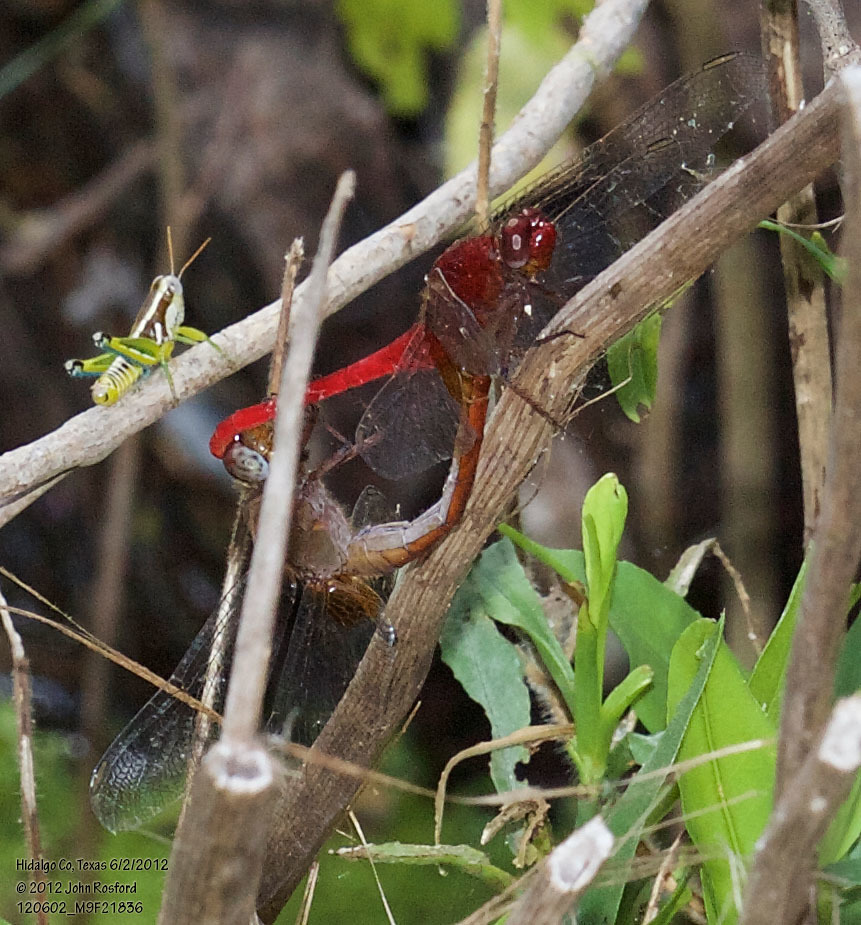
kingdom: Animalia
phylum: Arthropoda
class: Insecta
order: Odonata
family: Libellulidae
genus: Erythemis
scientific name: Erythemis mithroides
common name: Claret pondhawk
